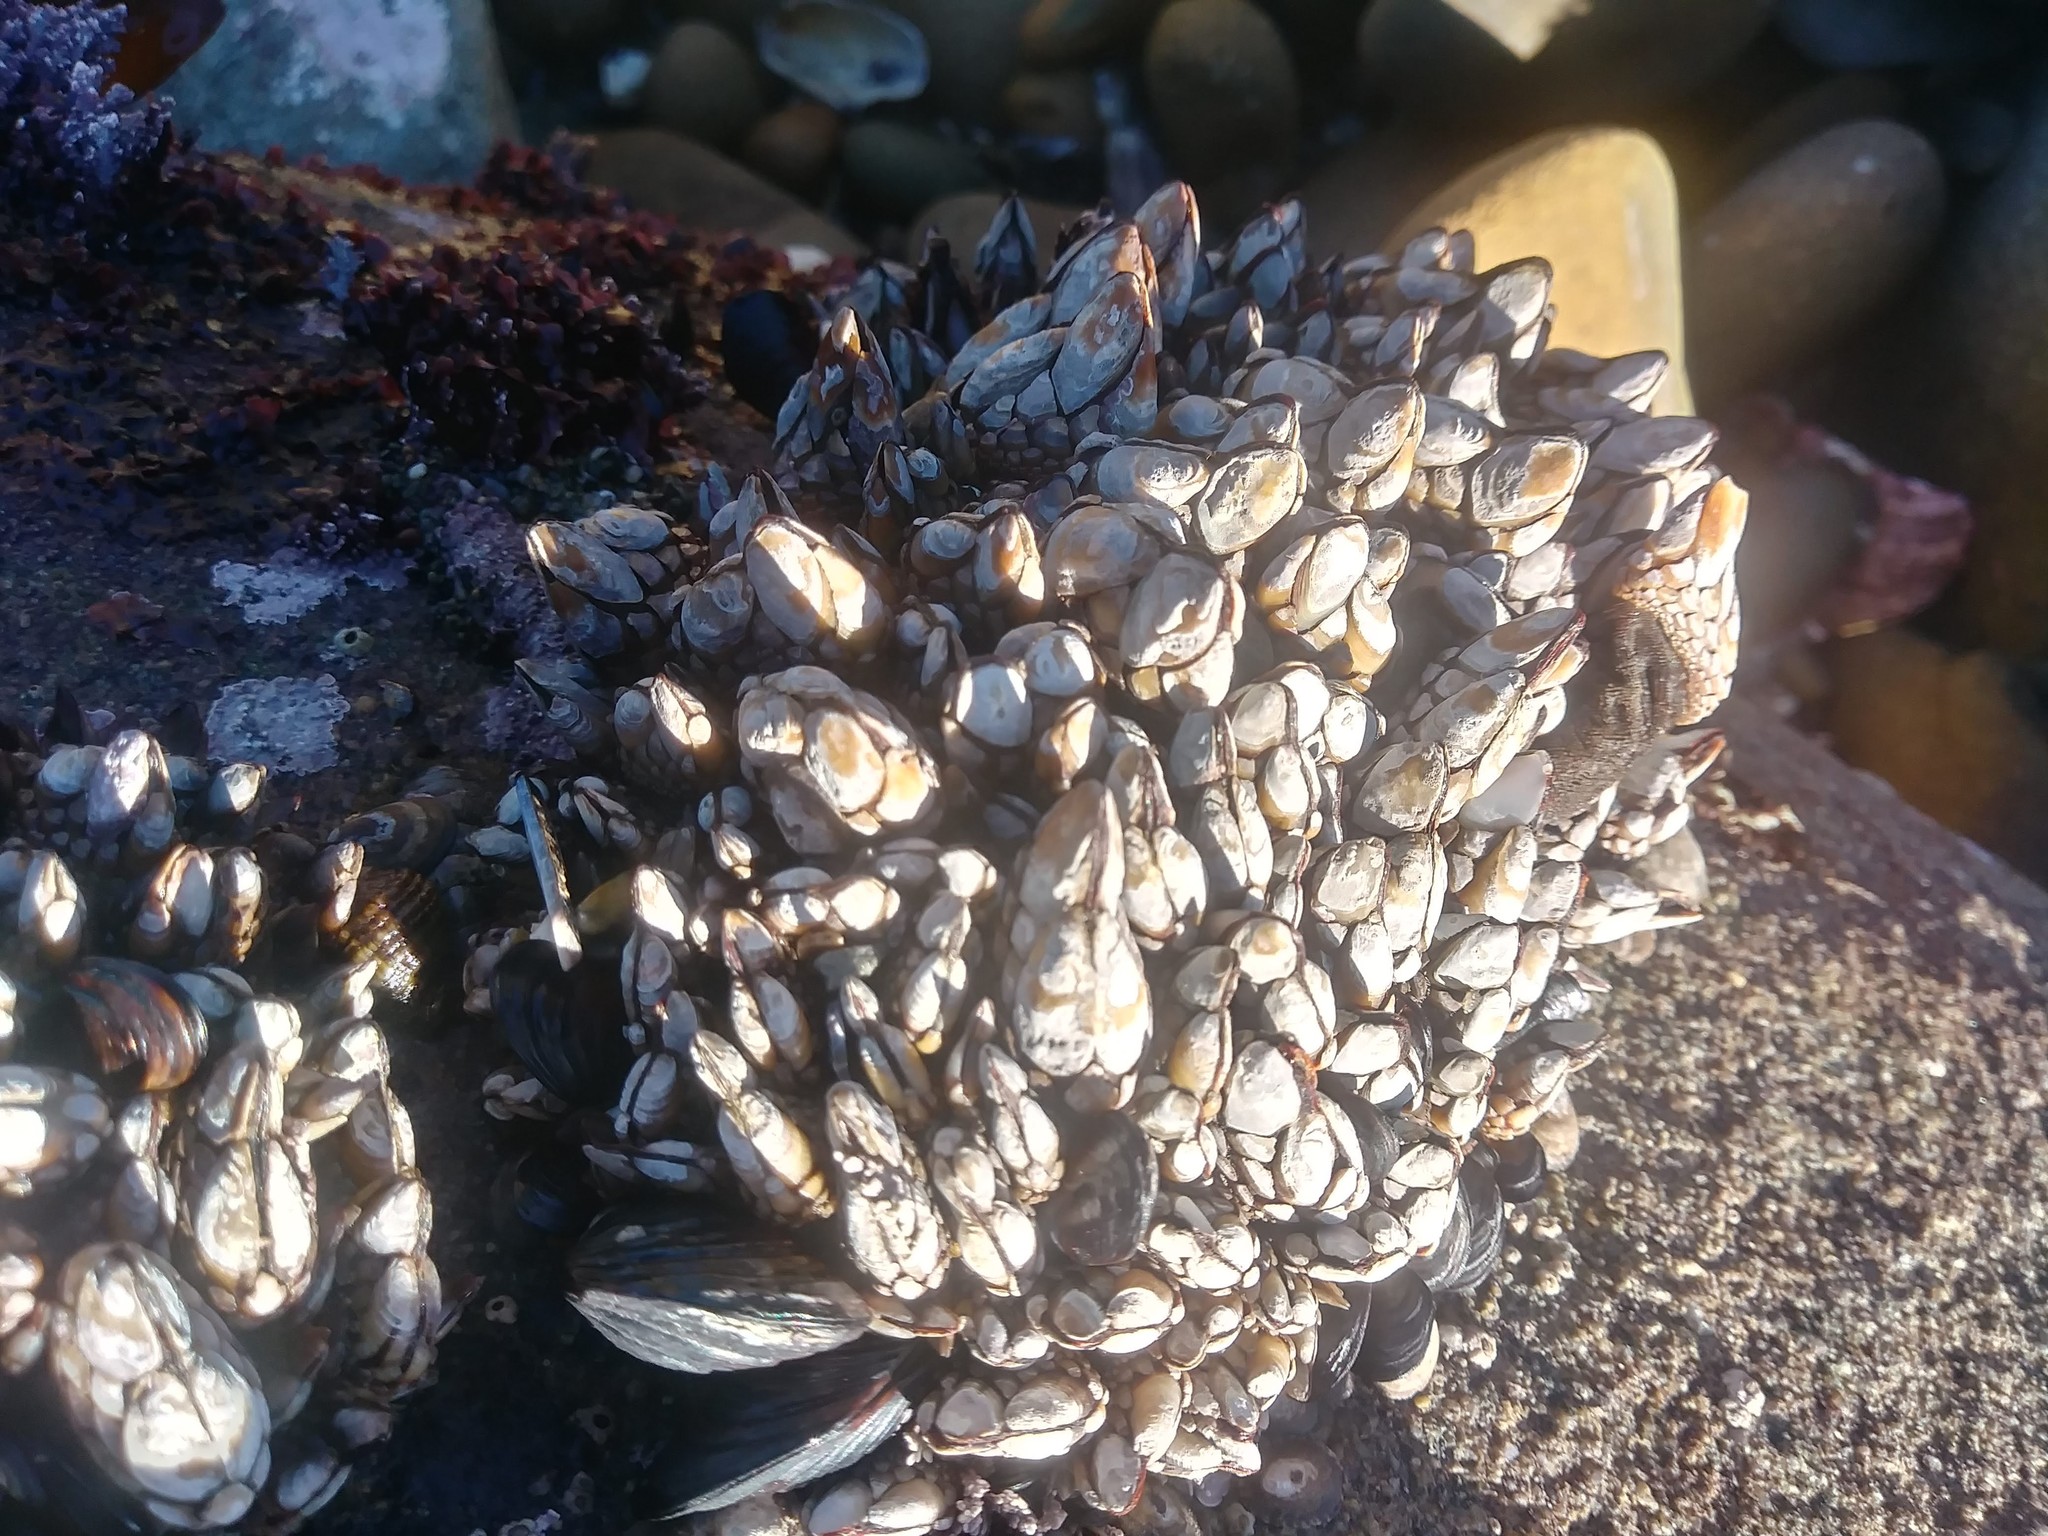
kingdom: Animalia
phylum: Arthropoda
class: Maxillopoda
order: Pedunculata
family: Pollicipedidae
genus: Pollicipes
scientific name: Pollicipes polymerus
